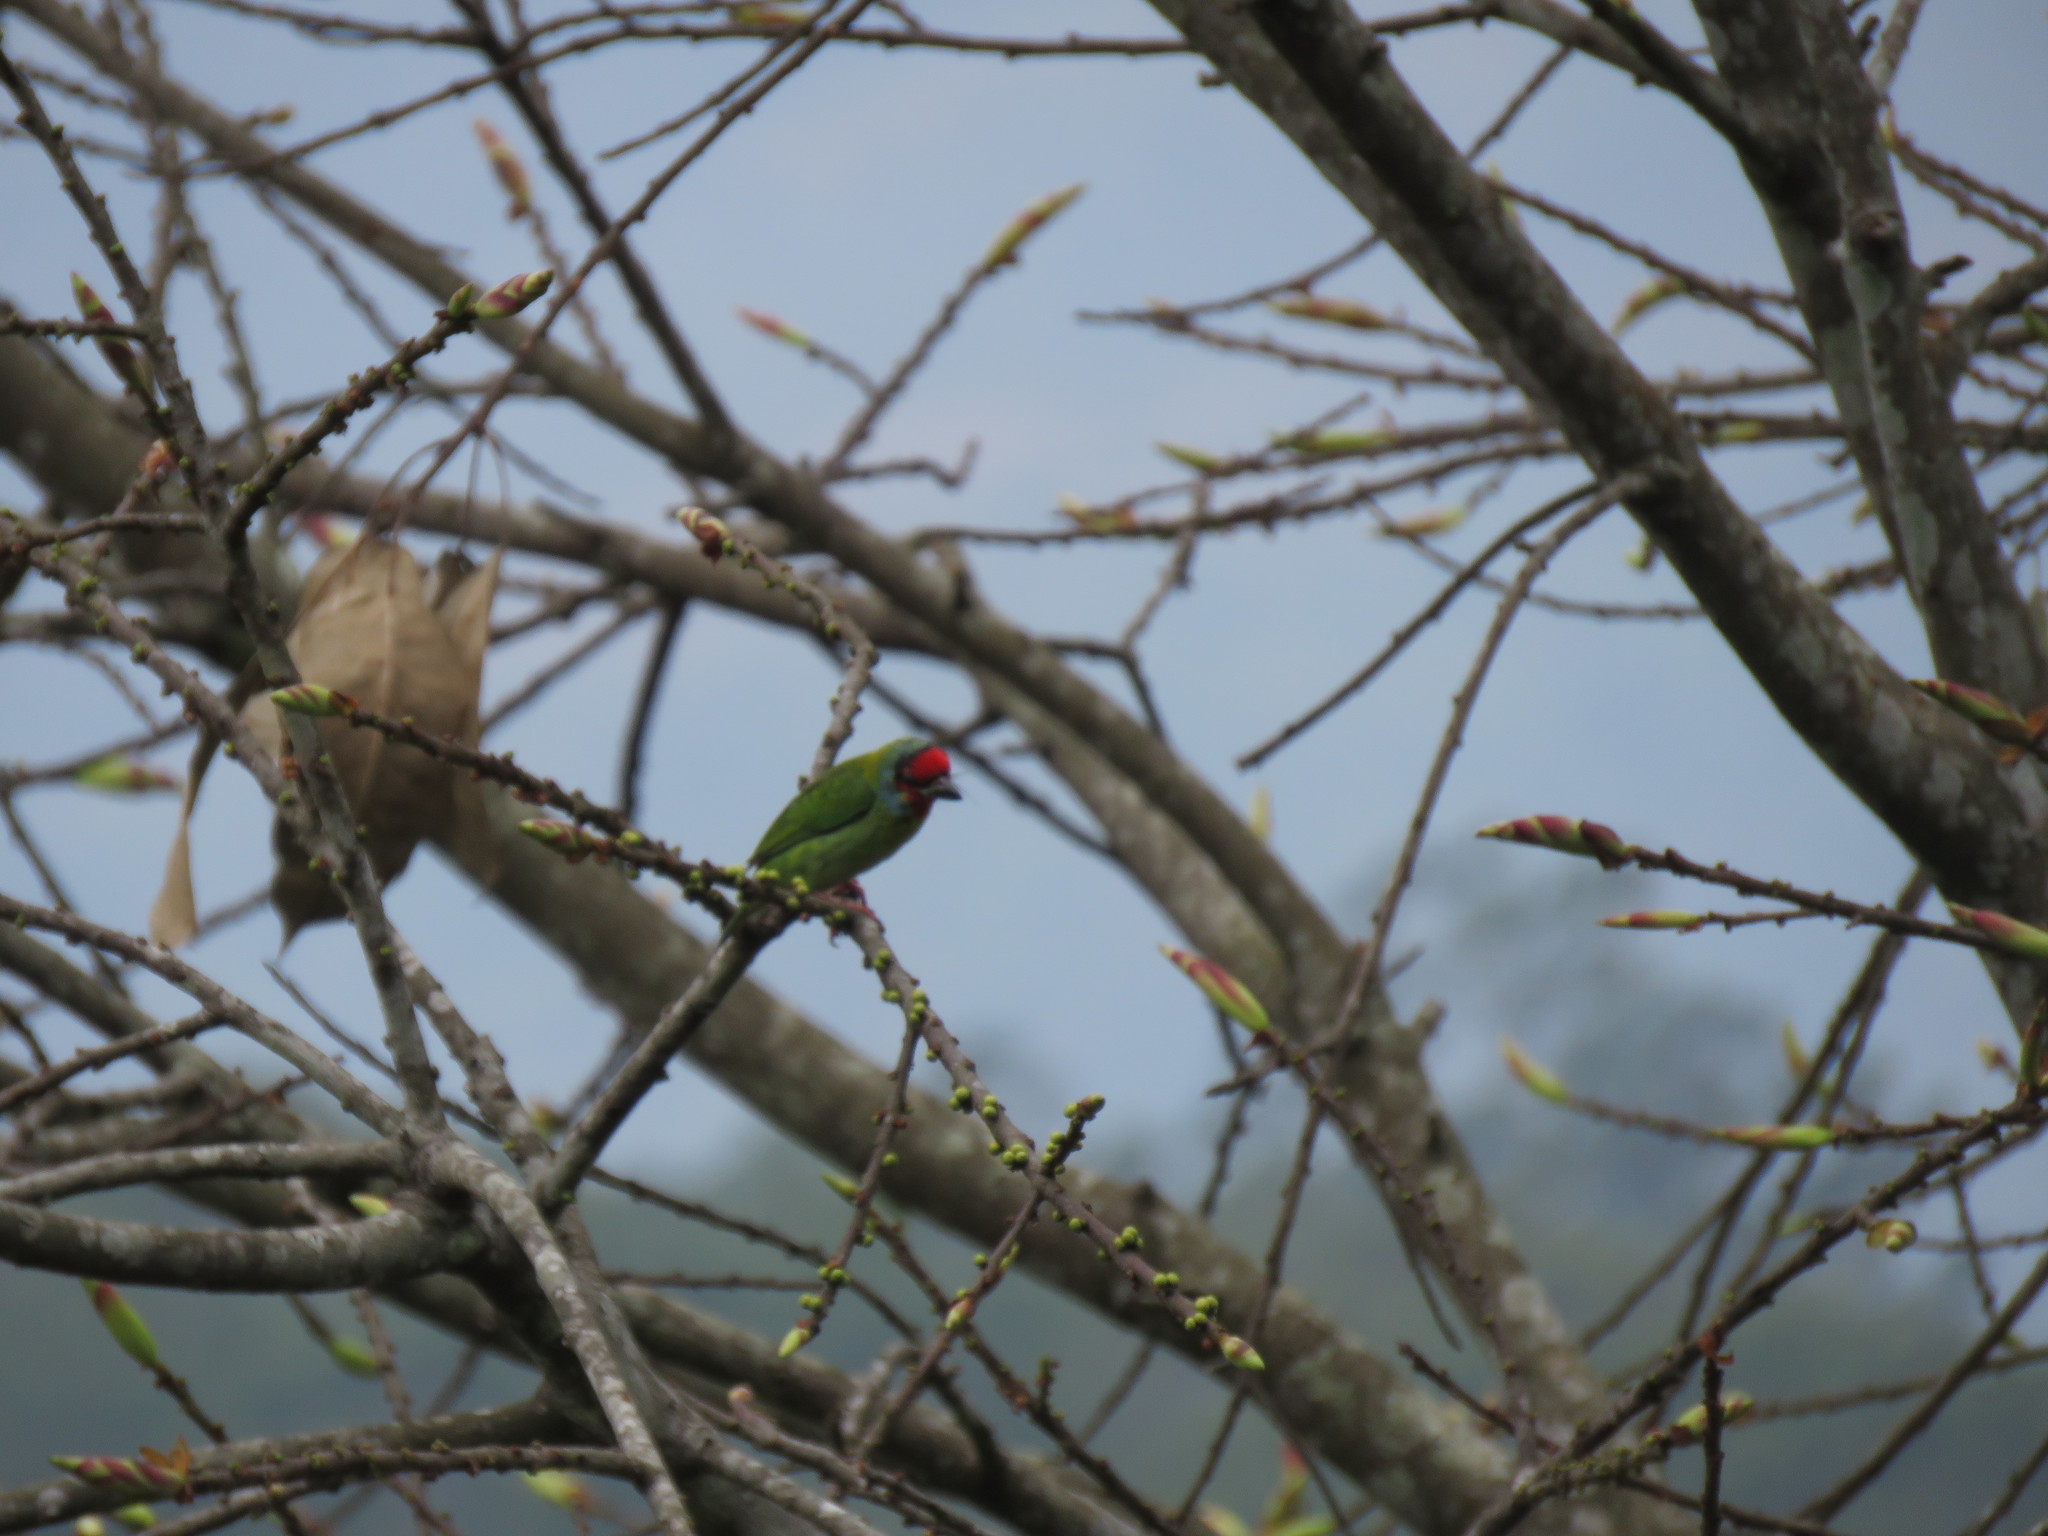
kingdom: Animalia
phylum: Chordata
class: Aves
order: Piciformes
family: Megalaimidae
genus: Psilopogon
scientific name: Psilopogon malabaricus
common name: Malabar barbet
